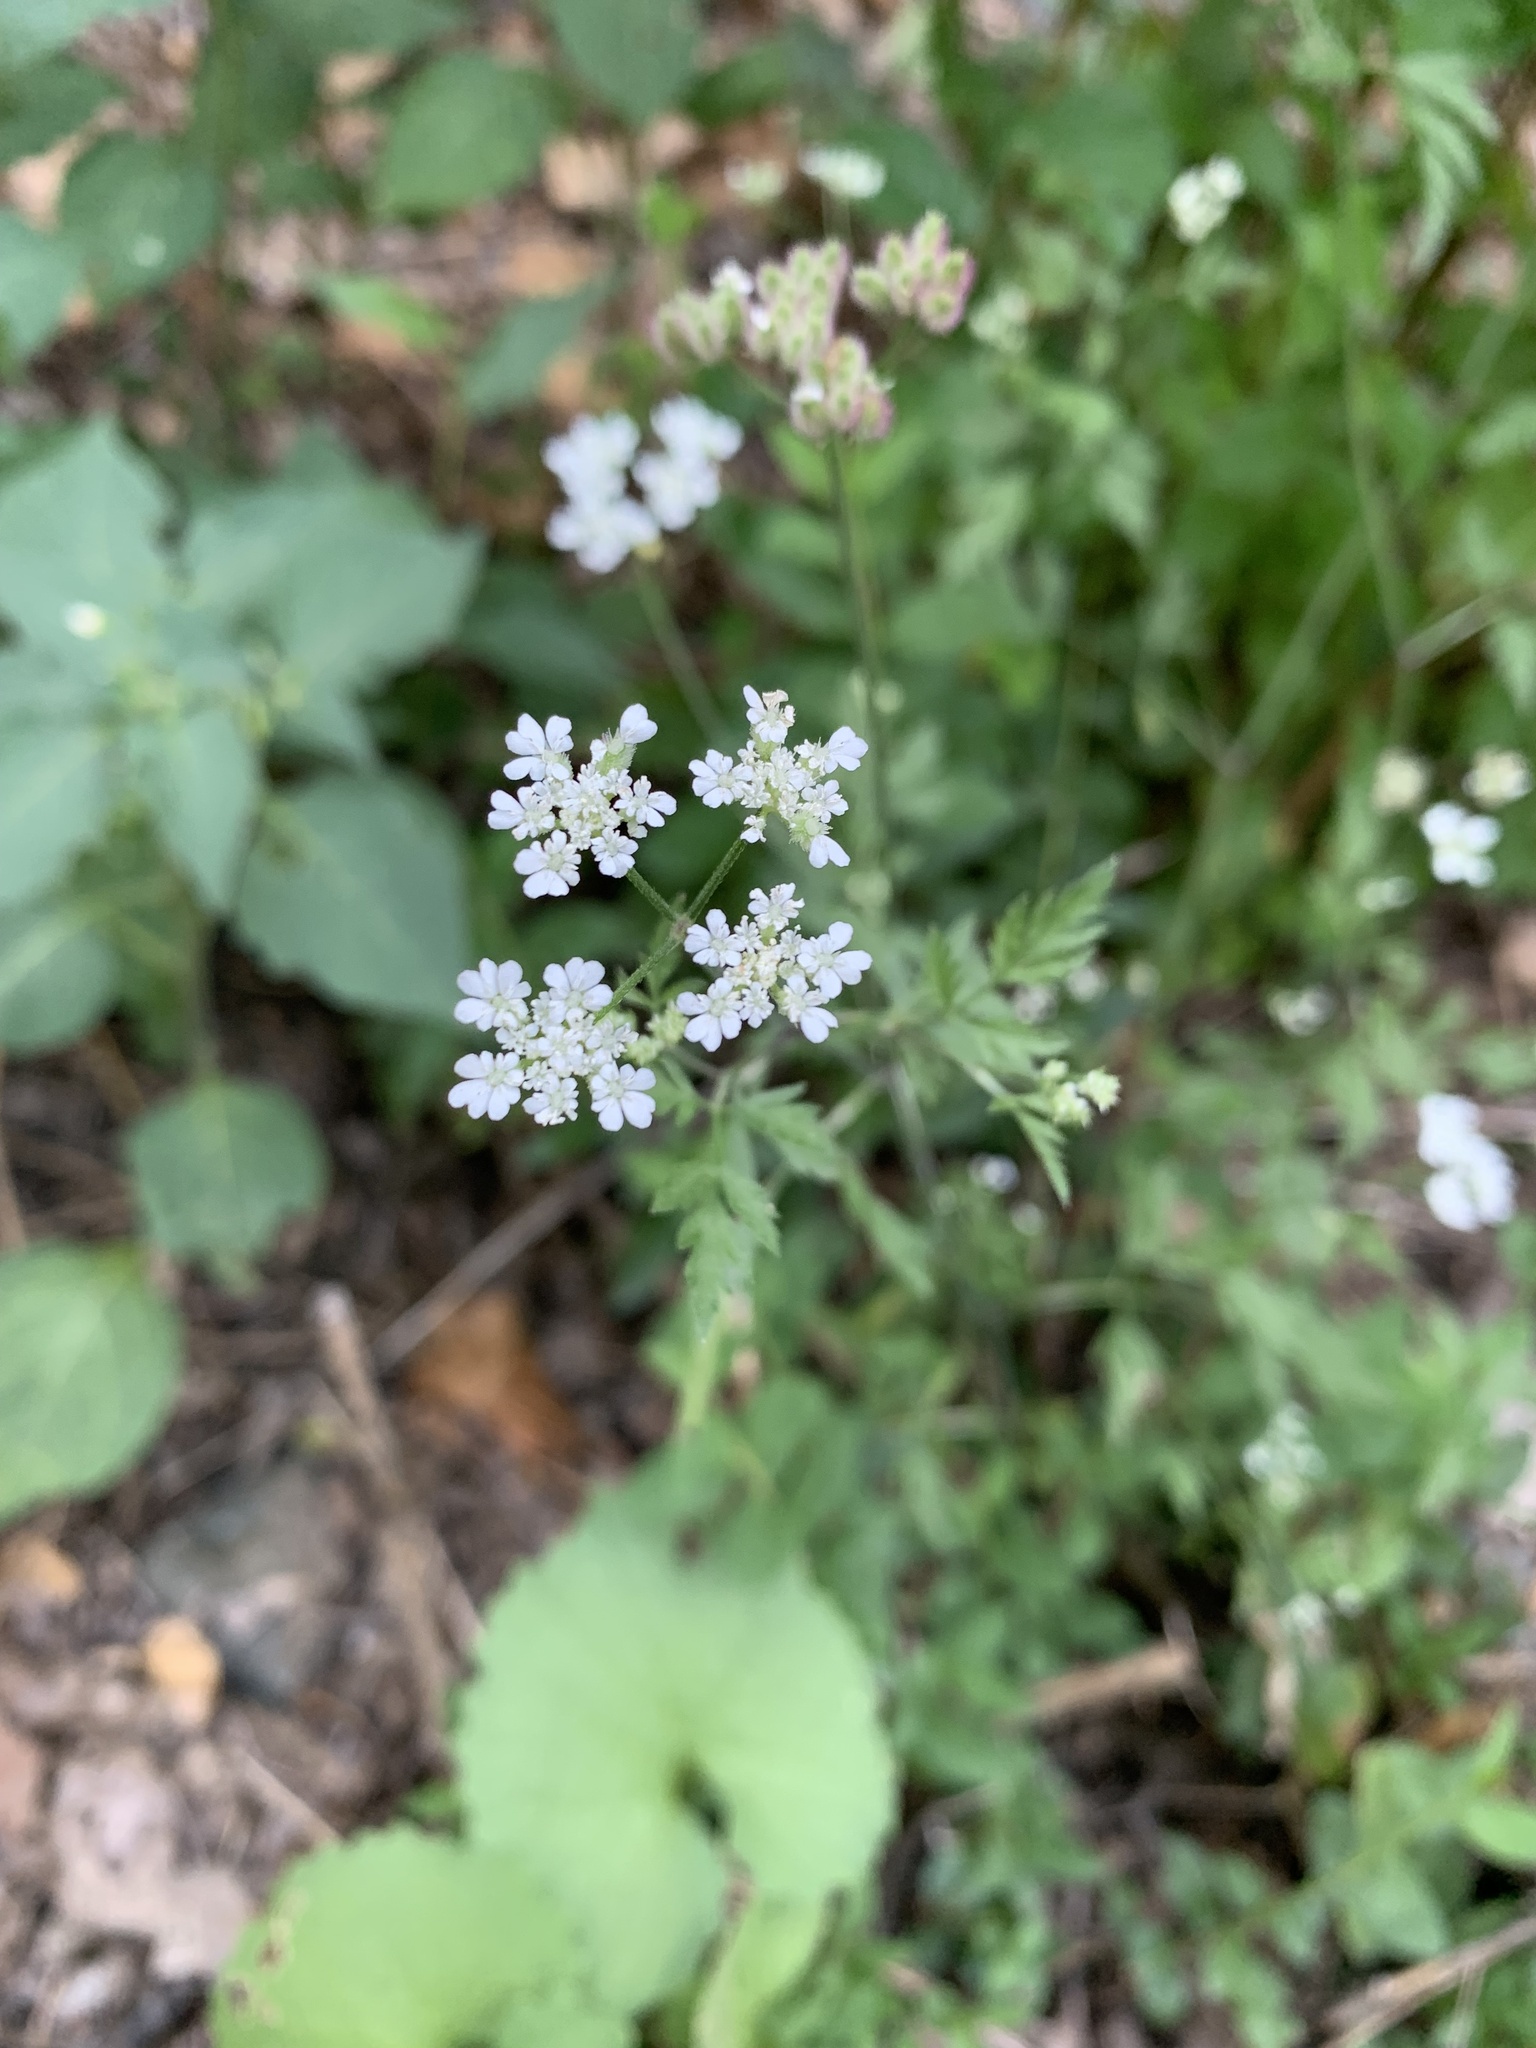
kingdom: Plantae
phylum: Tracheophyta
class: Magnoliopsida
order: Apiales
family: Apiaceae
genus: Torilis
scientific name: Torilis arvensis
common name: Spreading hedge-parsley
